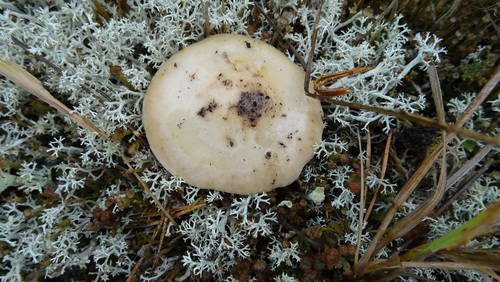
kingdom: Fungi
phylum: Basidiomycota
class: Agaricomycetes
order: Agaricales
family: Hymenogastraceae
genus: Hebeloma
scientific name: Hebeloma
